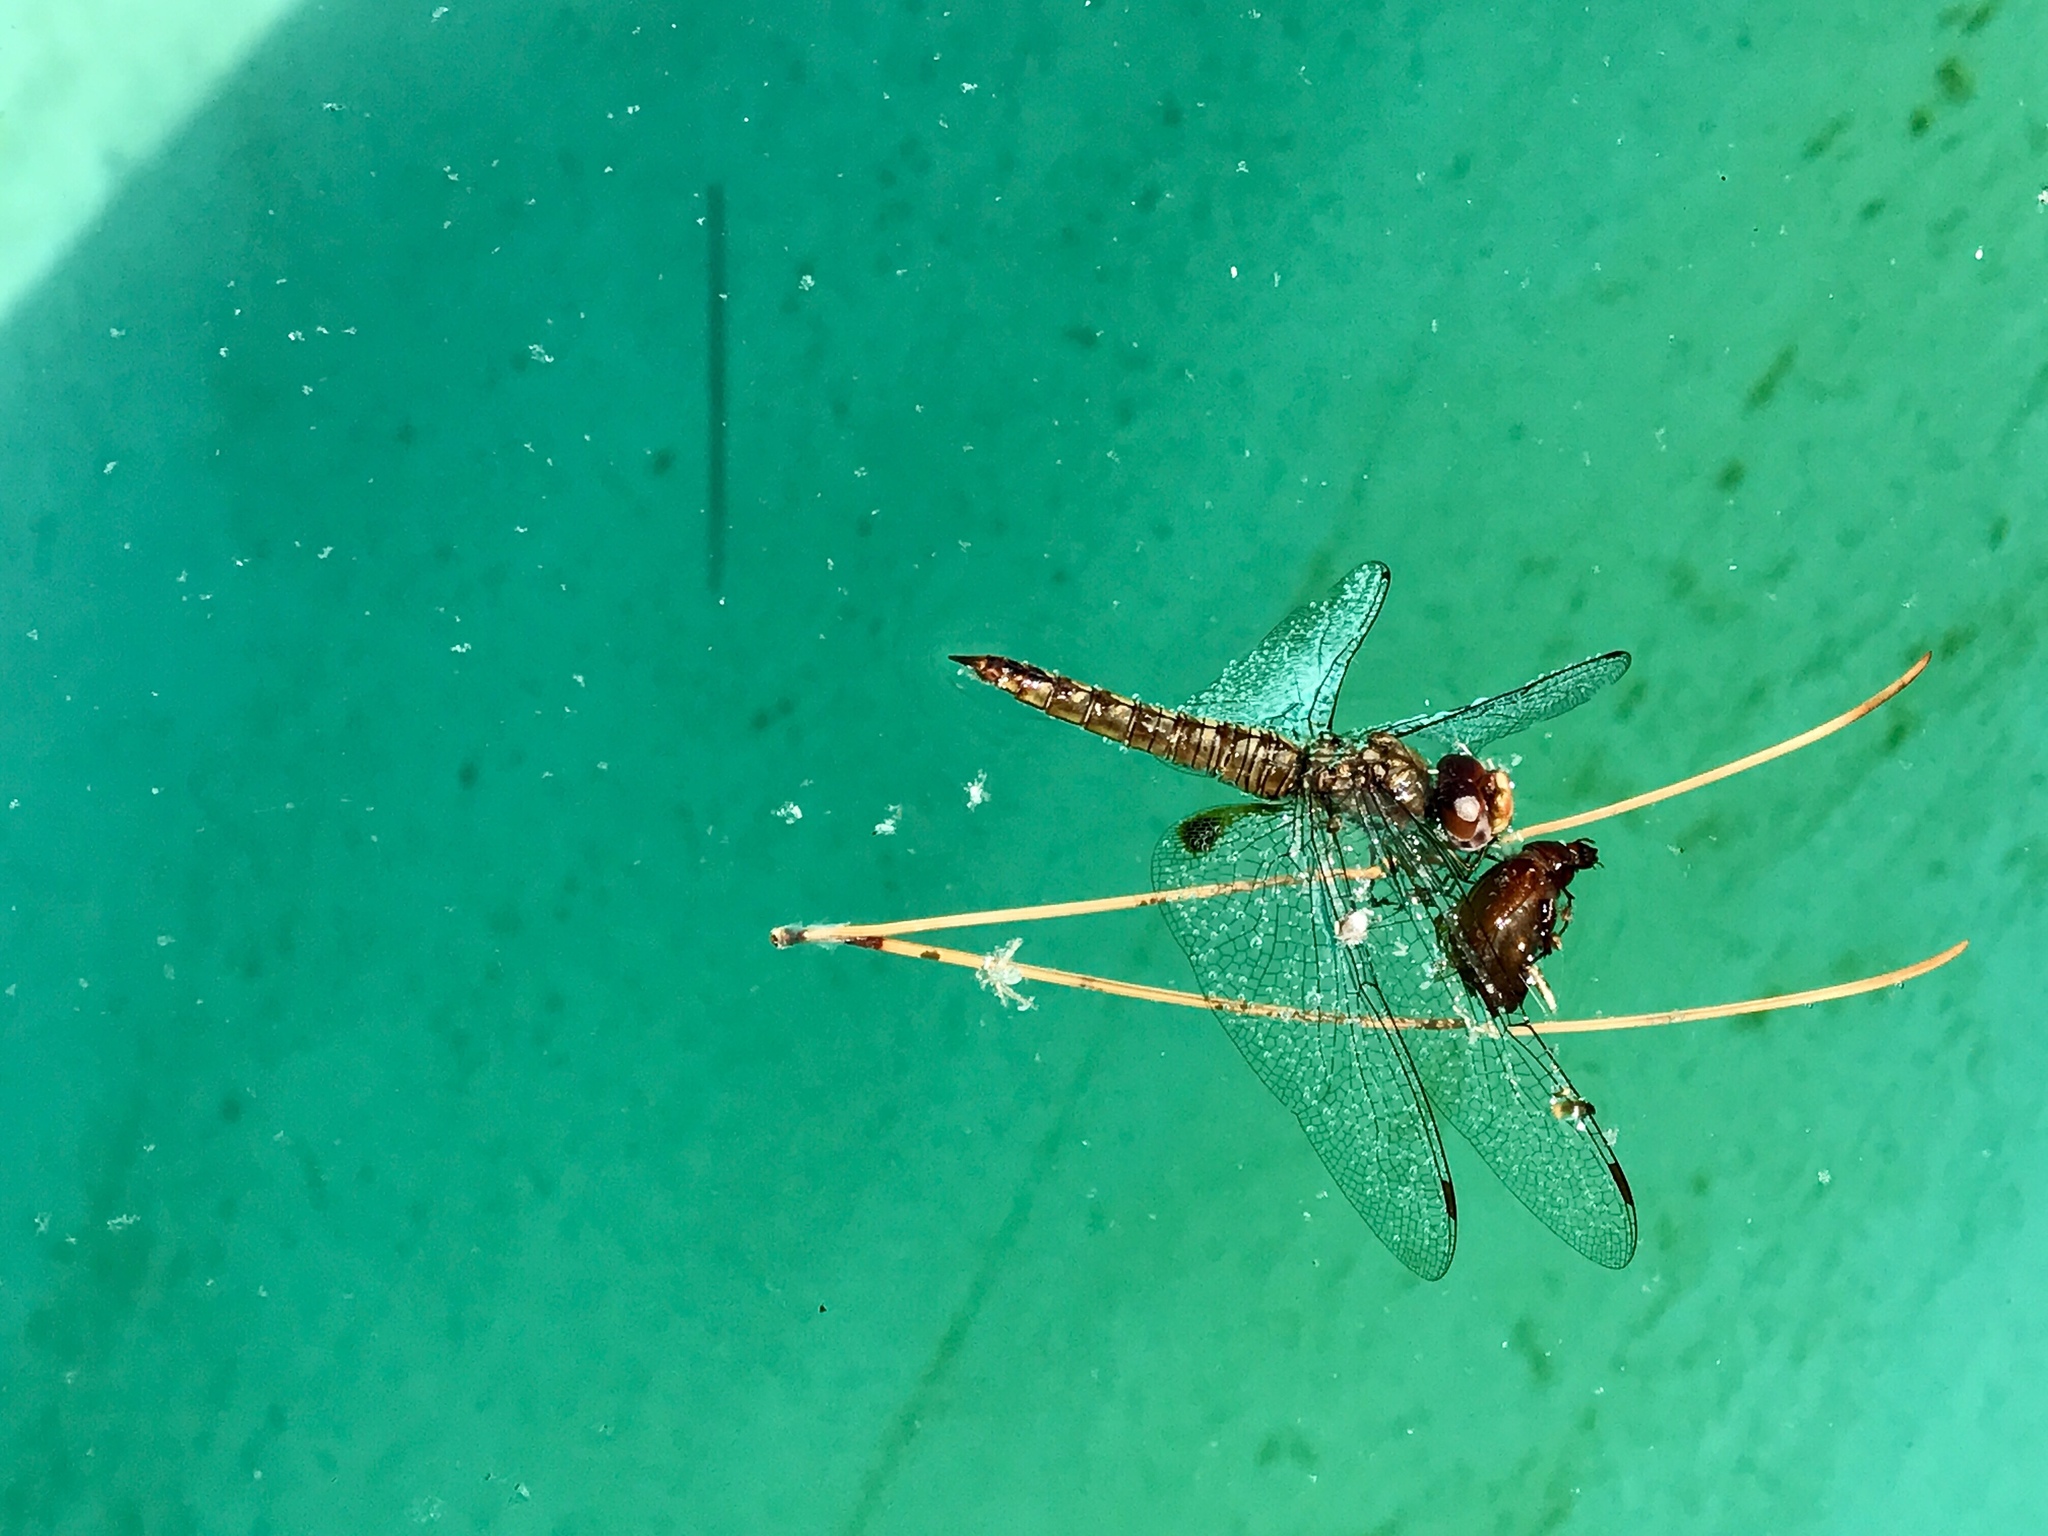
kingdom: Animalia
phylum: Arthropoda
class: Insecta
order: Odonata
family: Libellulidae
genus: Pantala
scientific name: Pantala hymenaea
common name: Spot-winged glider
